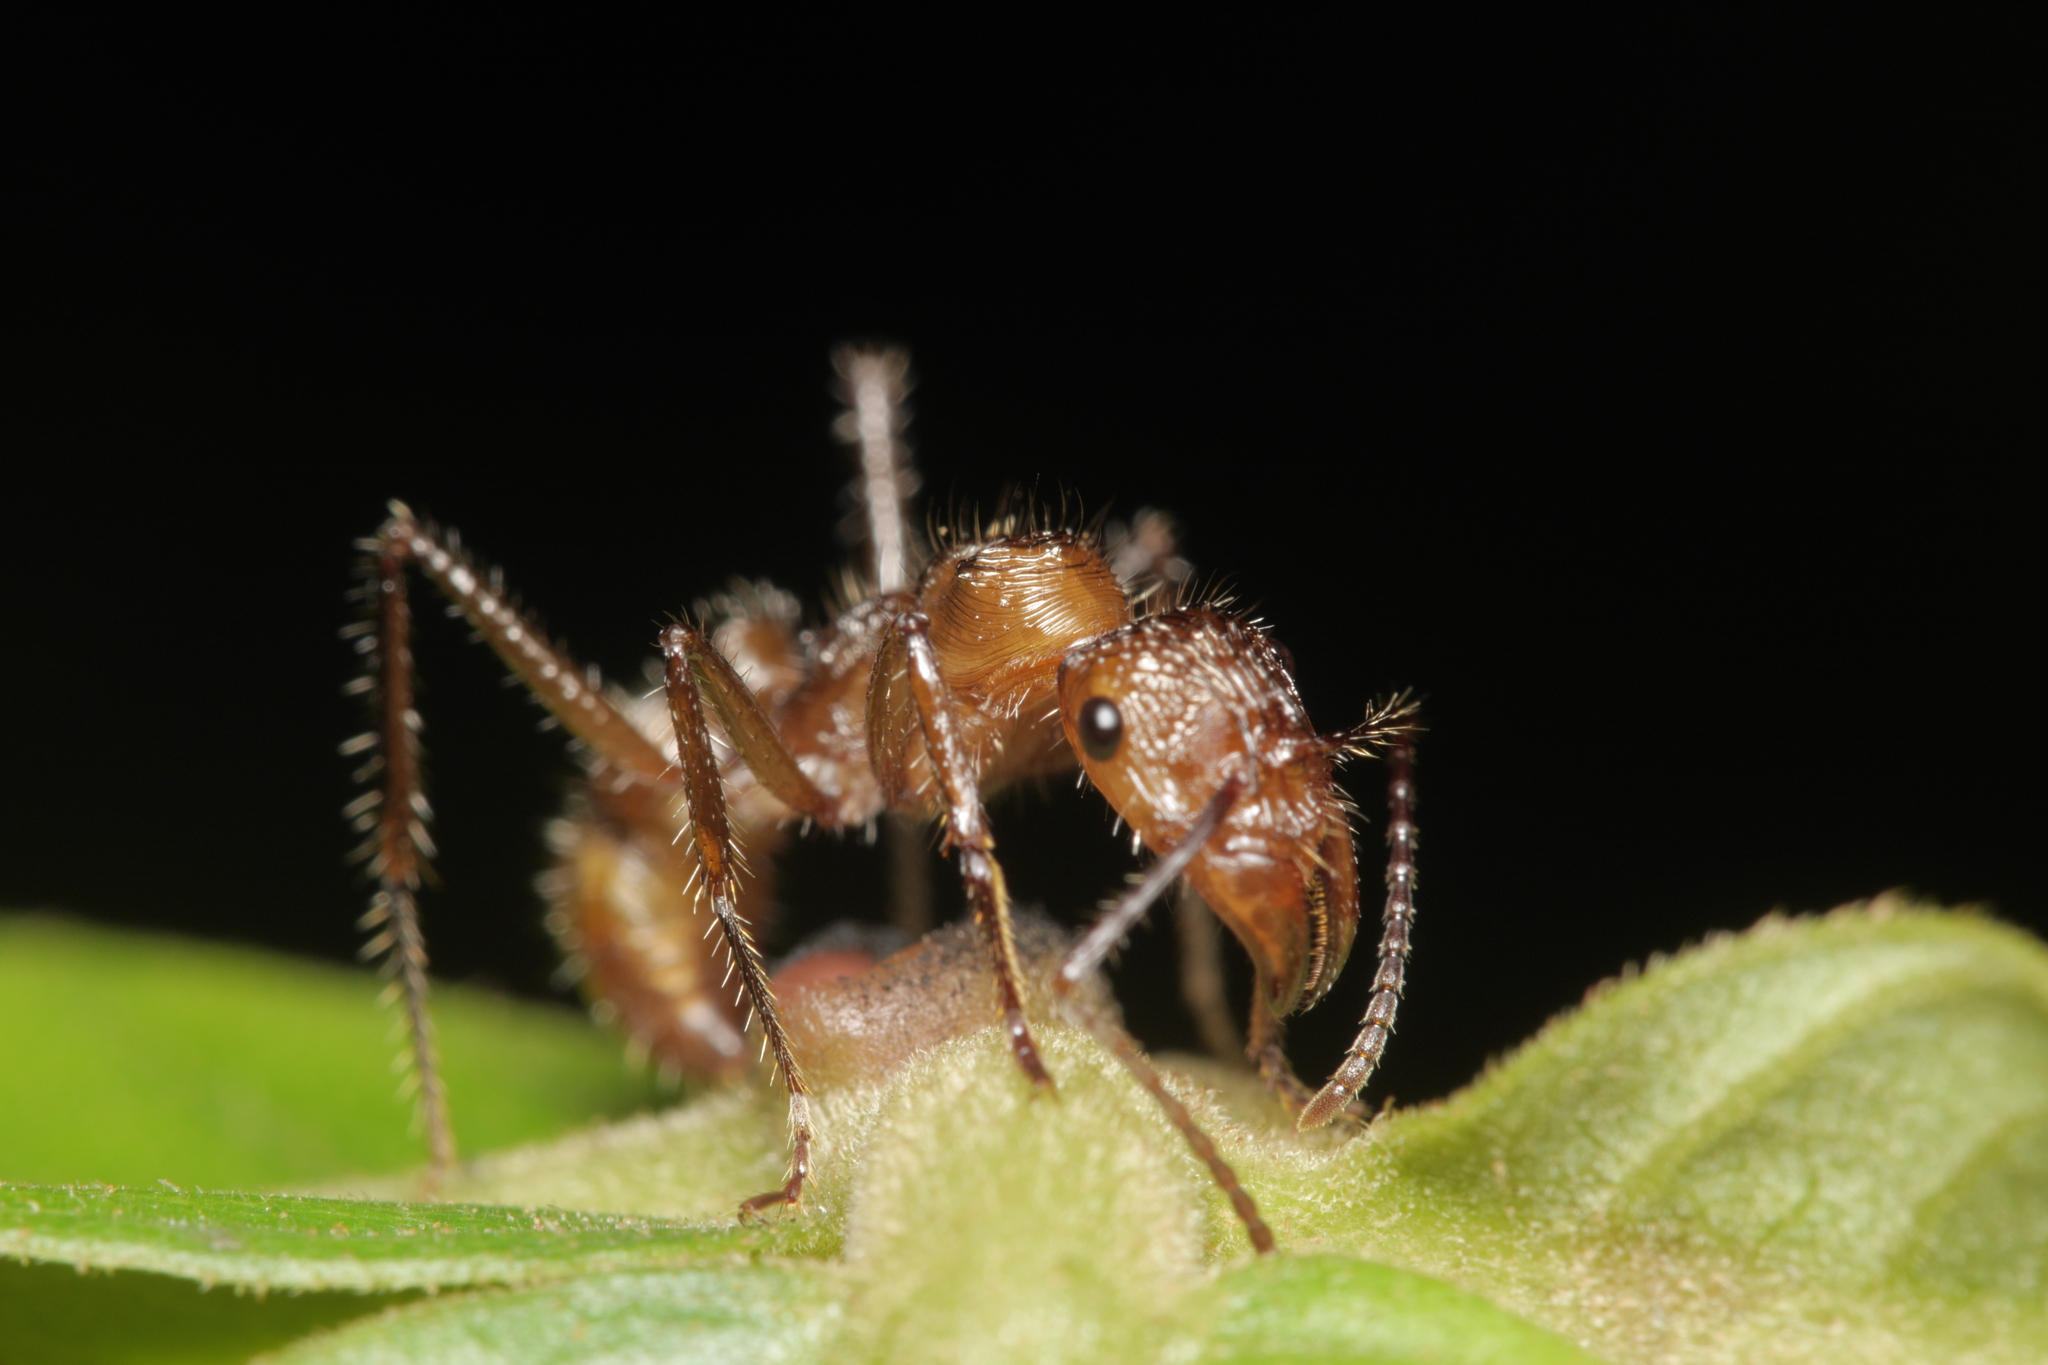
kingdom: Animalia
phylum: Arthropoda
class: Insecta
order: Hymenoptera
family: Formicidae
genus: Ectatomma
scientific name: Ectatomma tuberculatum
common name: Ant
